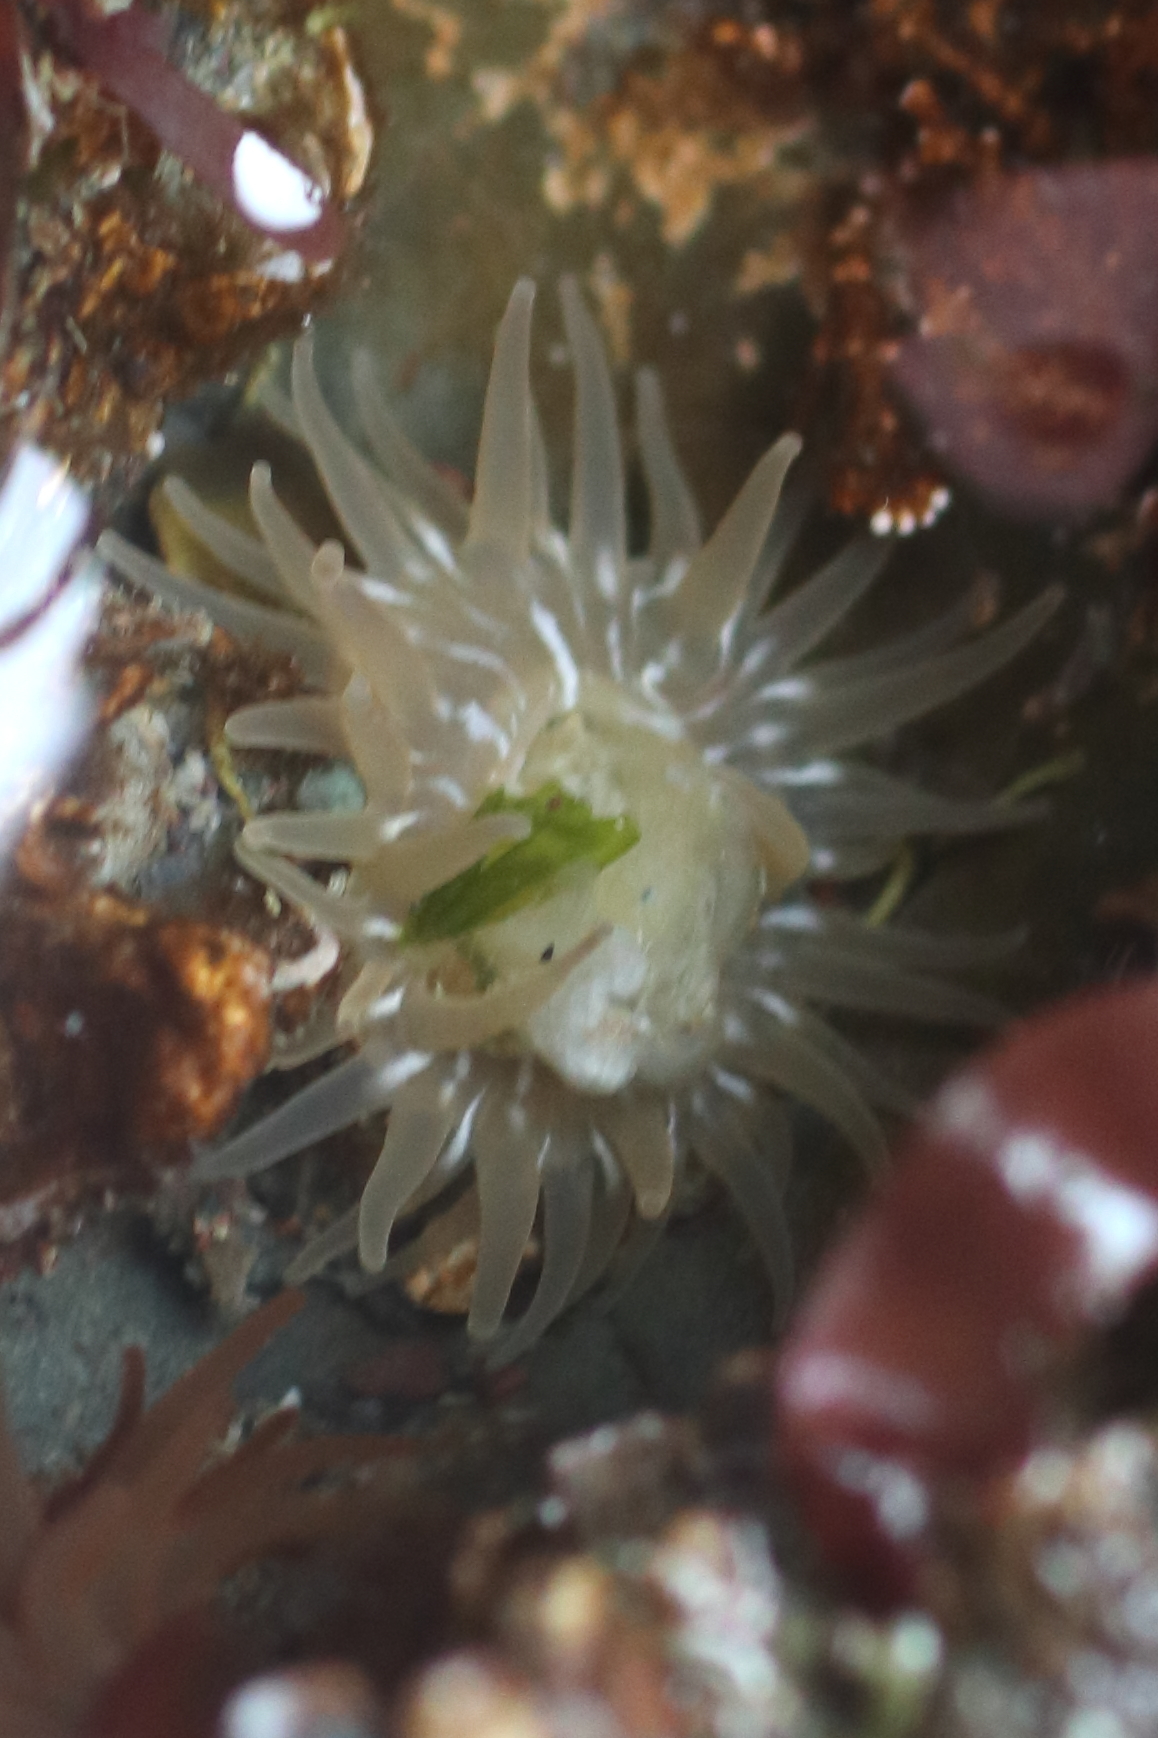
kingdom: Animalia
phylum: Cnidaria
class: Anthozoa
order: Actiniaria
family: Actiniidae
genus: Aulactinia
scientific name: Aulactinia incubans
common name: Incubating anemone
